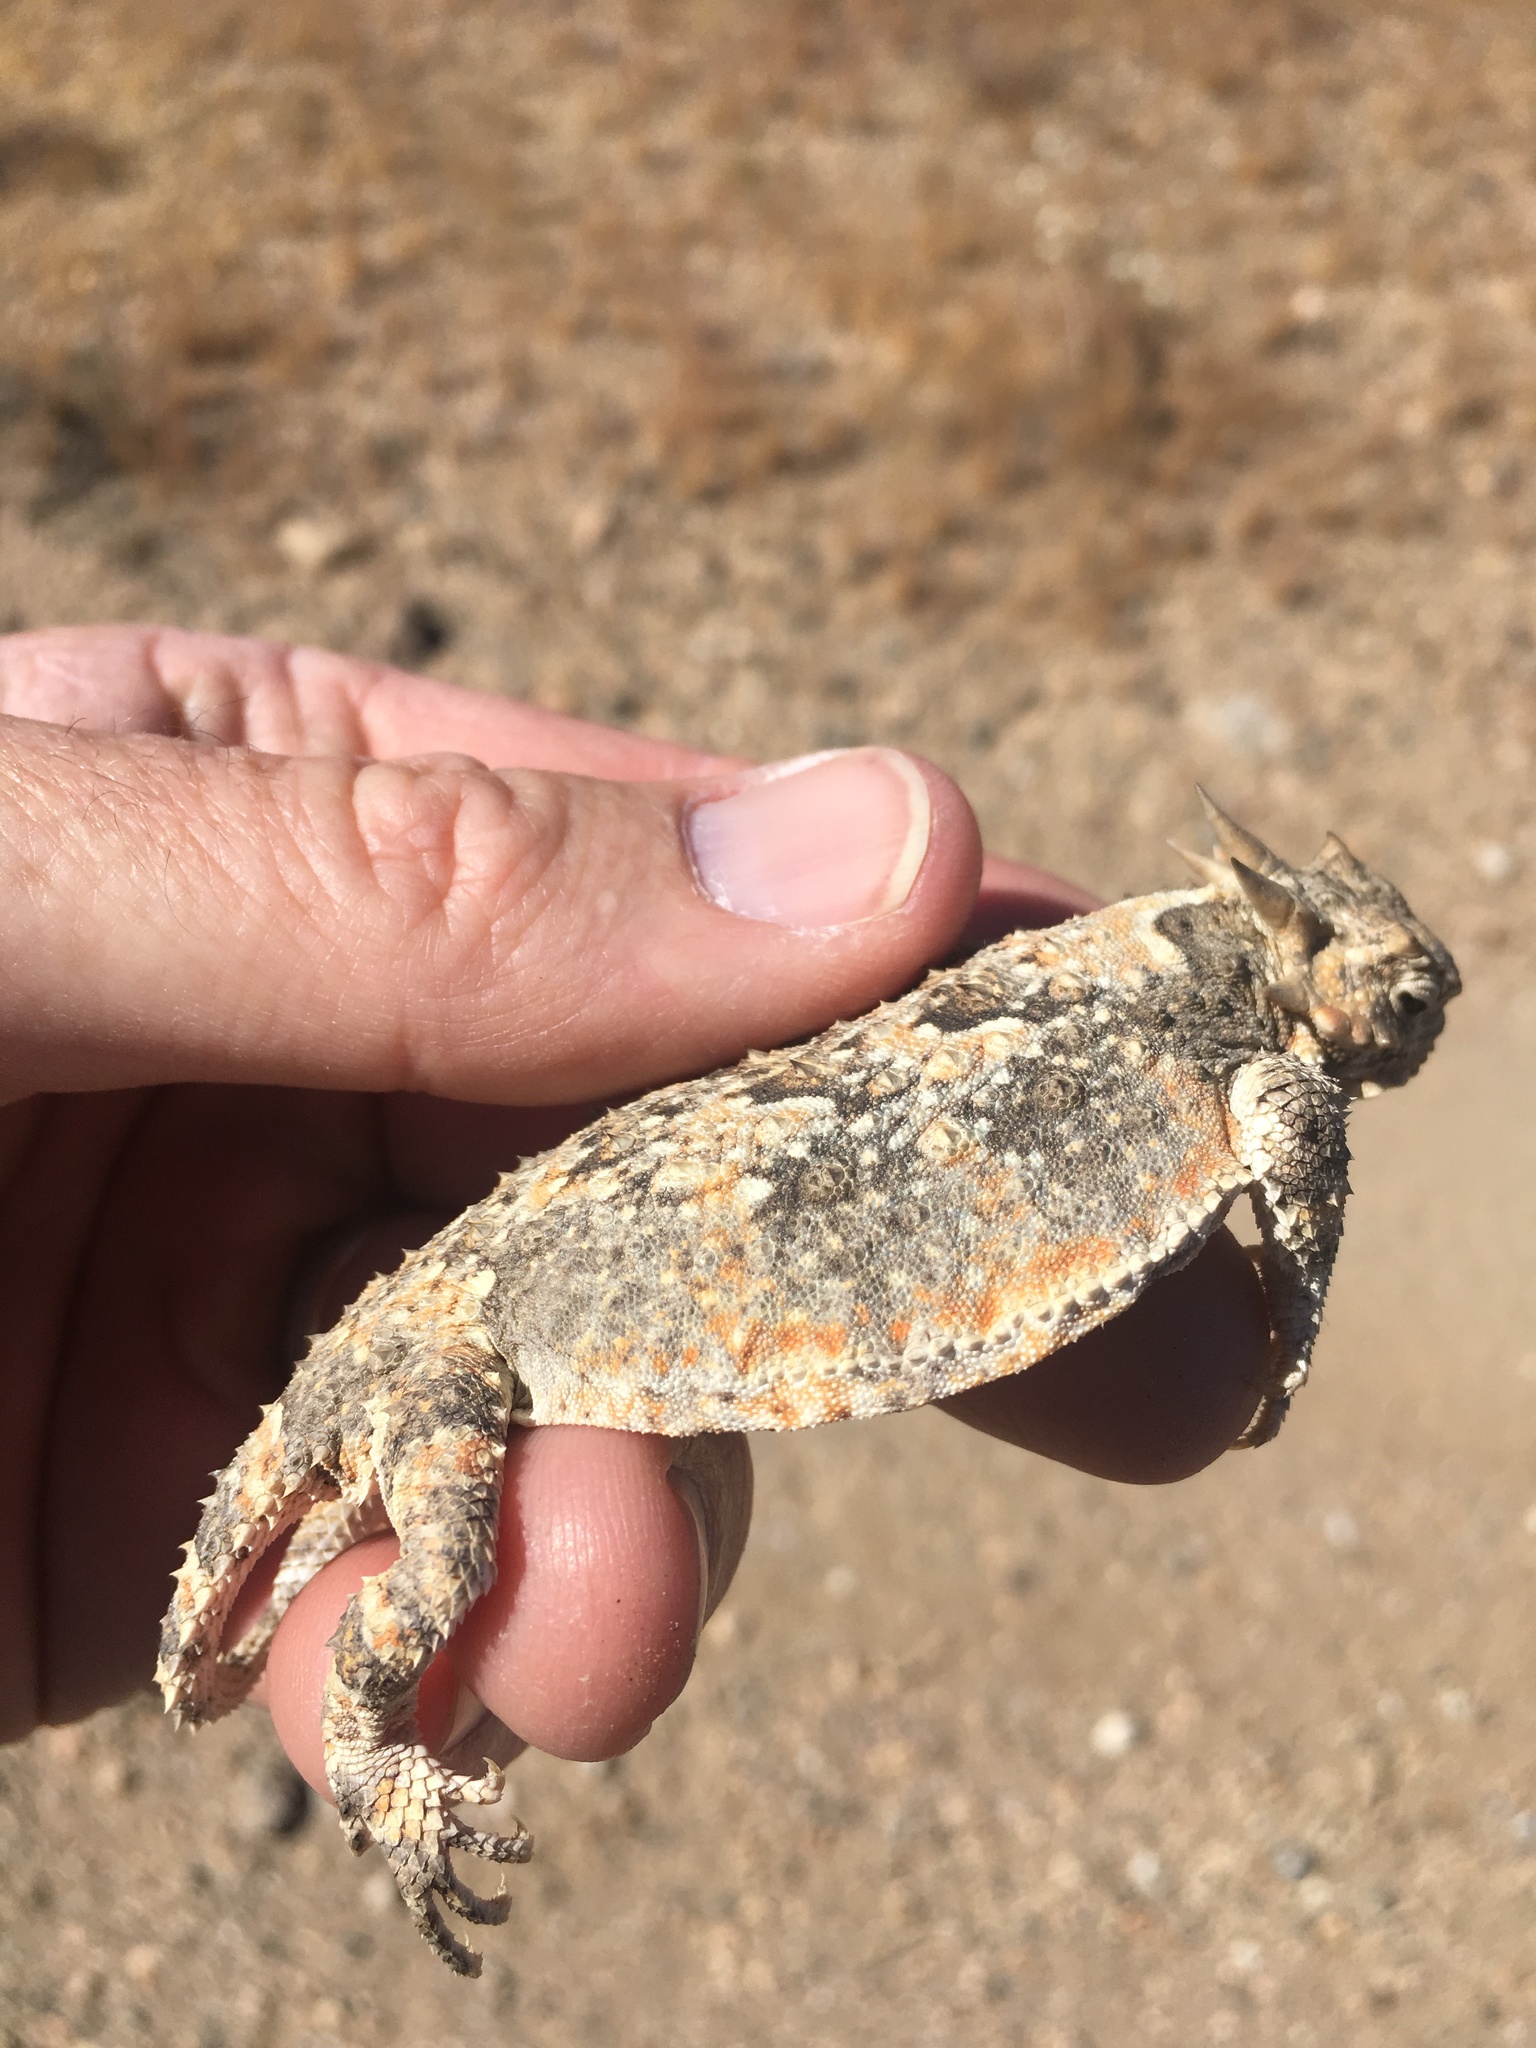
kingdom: Animalia
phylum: Chordata
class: Squamata
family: Phrynosomatidae
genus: Phrynosoma
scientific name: Phrynosoma platyrhinos
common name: Desert horned lizard
